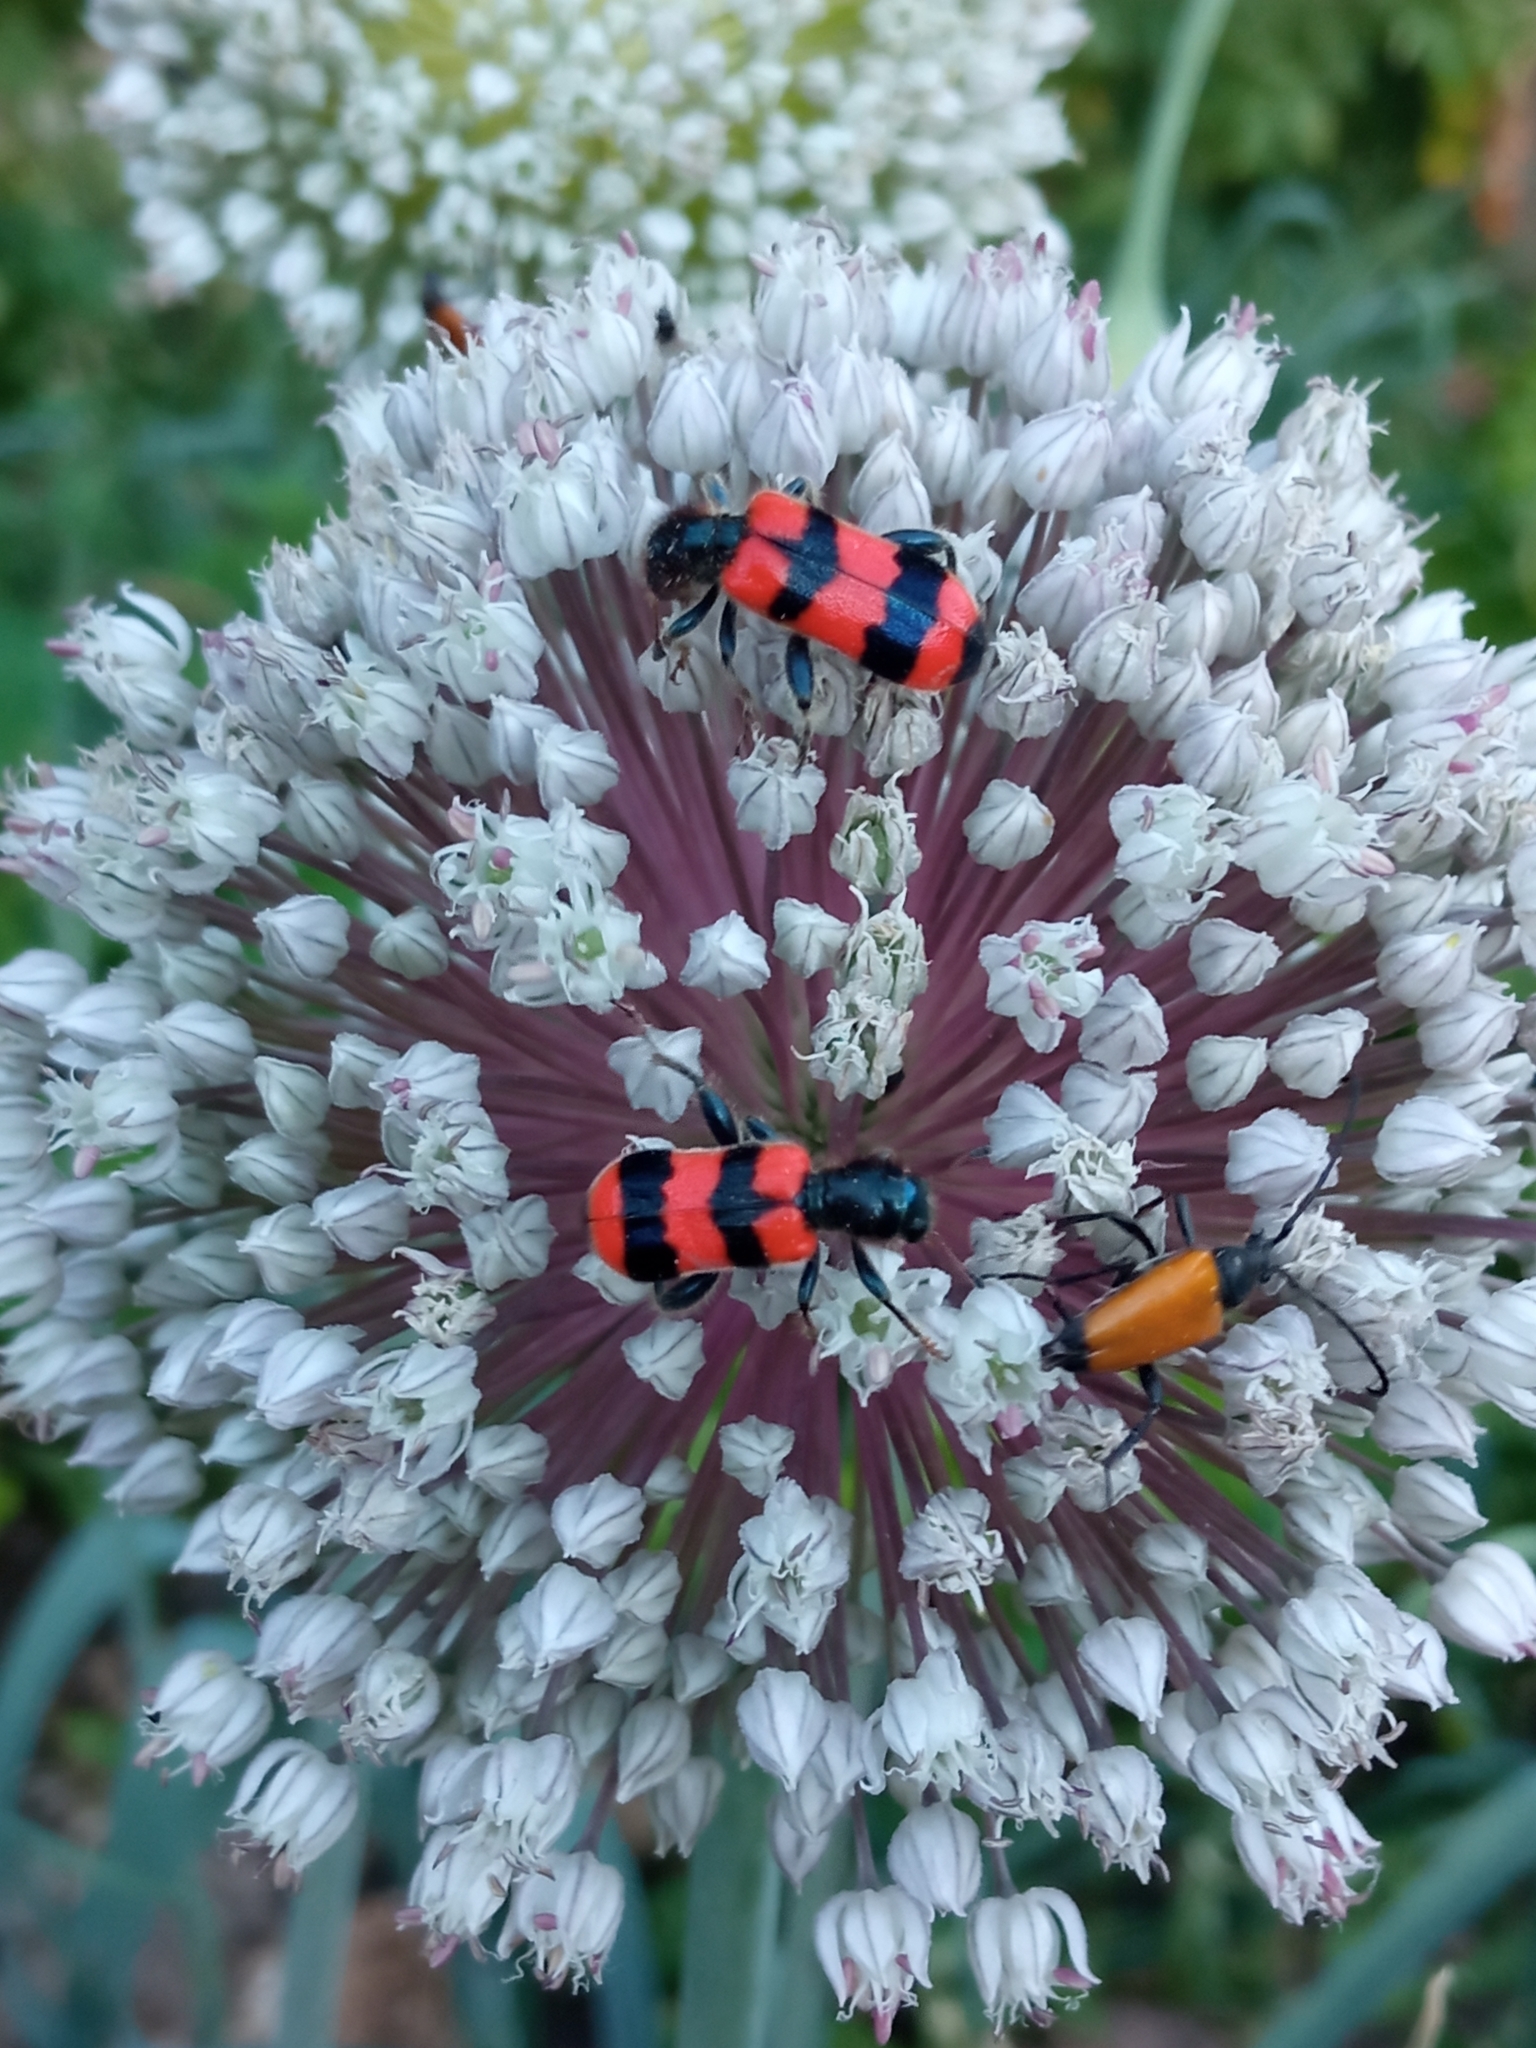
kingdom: Animalia
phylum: Arthropoda
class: Insecta
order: Coleoptera
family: Cleridae
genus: Trichodes
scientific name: Trichodes apiarius
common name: Bee-eating beetle
